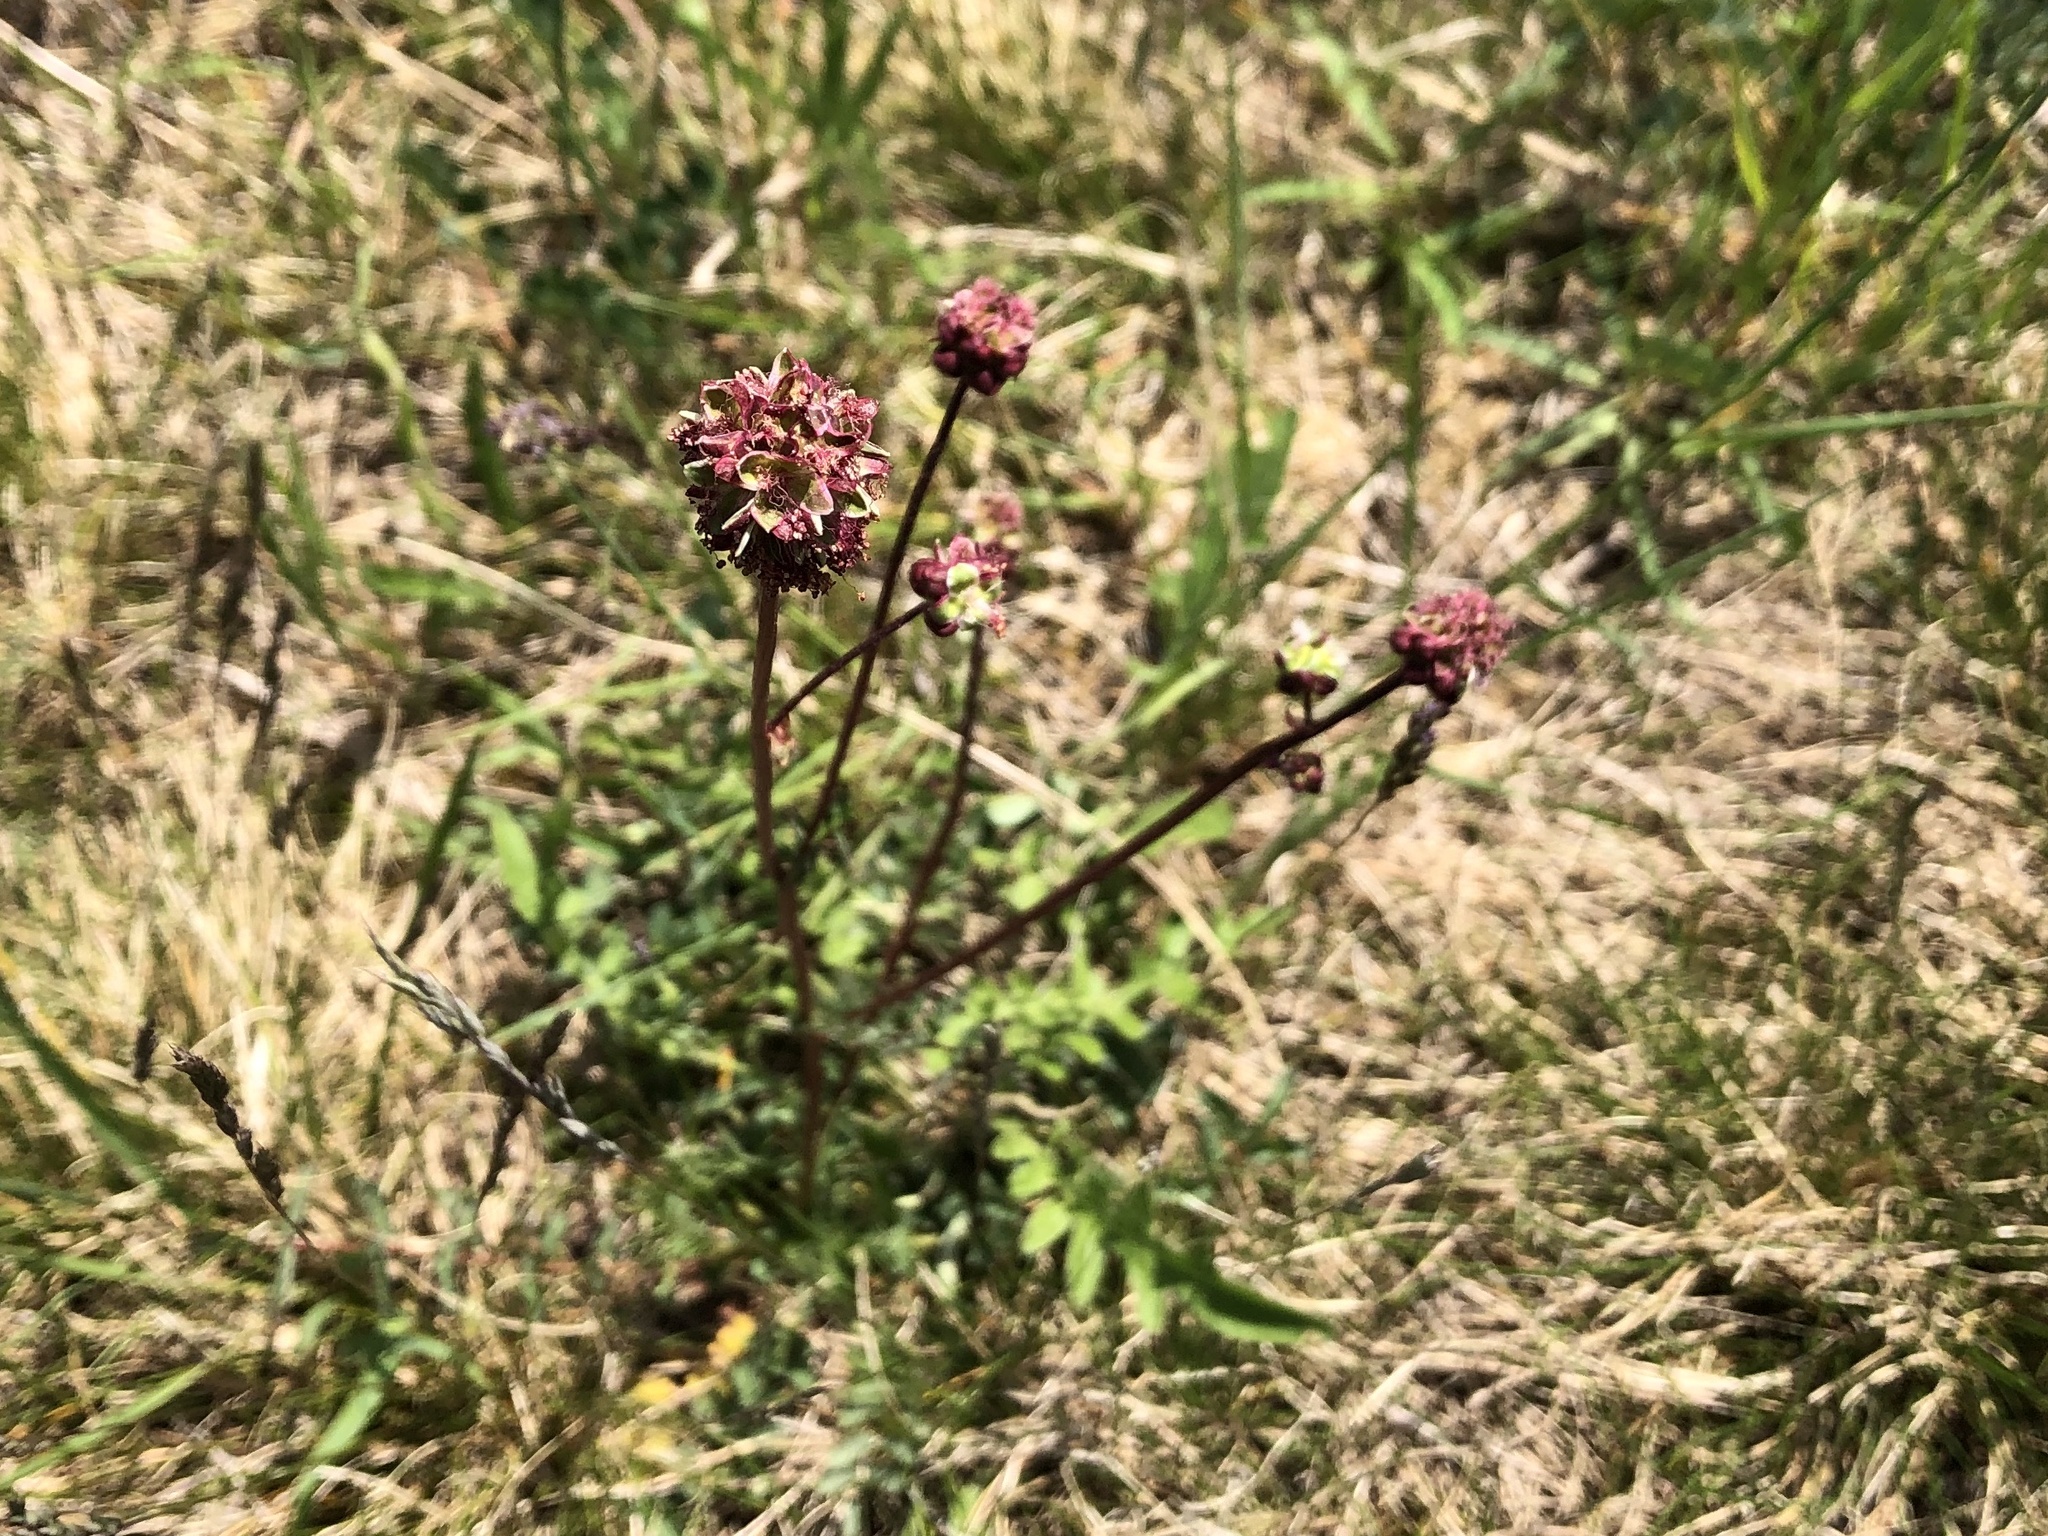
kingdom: Plantae
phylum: Tracheophyta
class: Magnoliopsida
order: Rosales
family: Rosaceae
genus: Poterium
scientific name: Poterium sanguisorba
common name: Salad burnet
